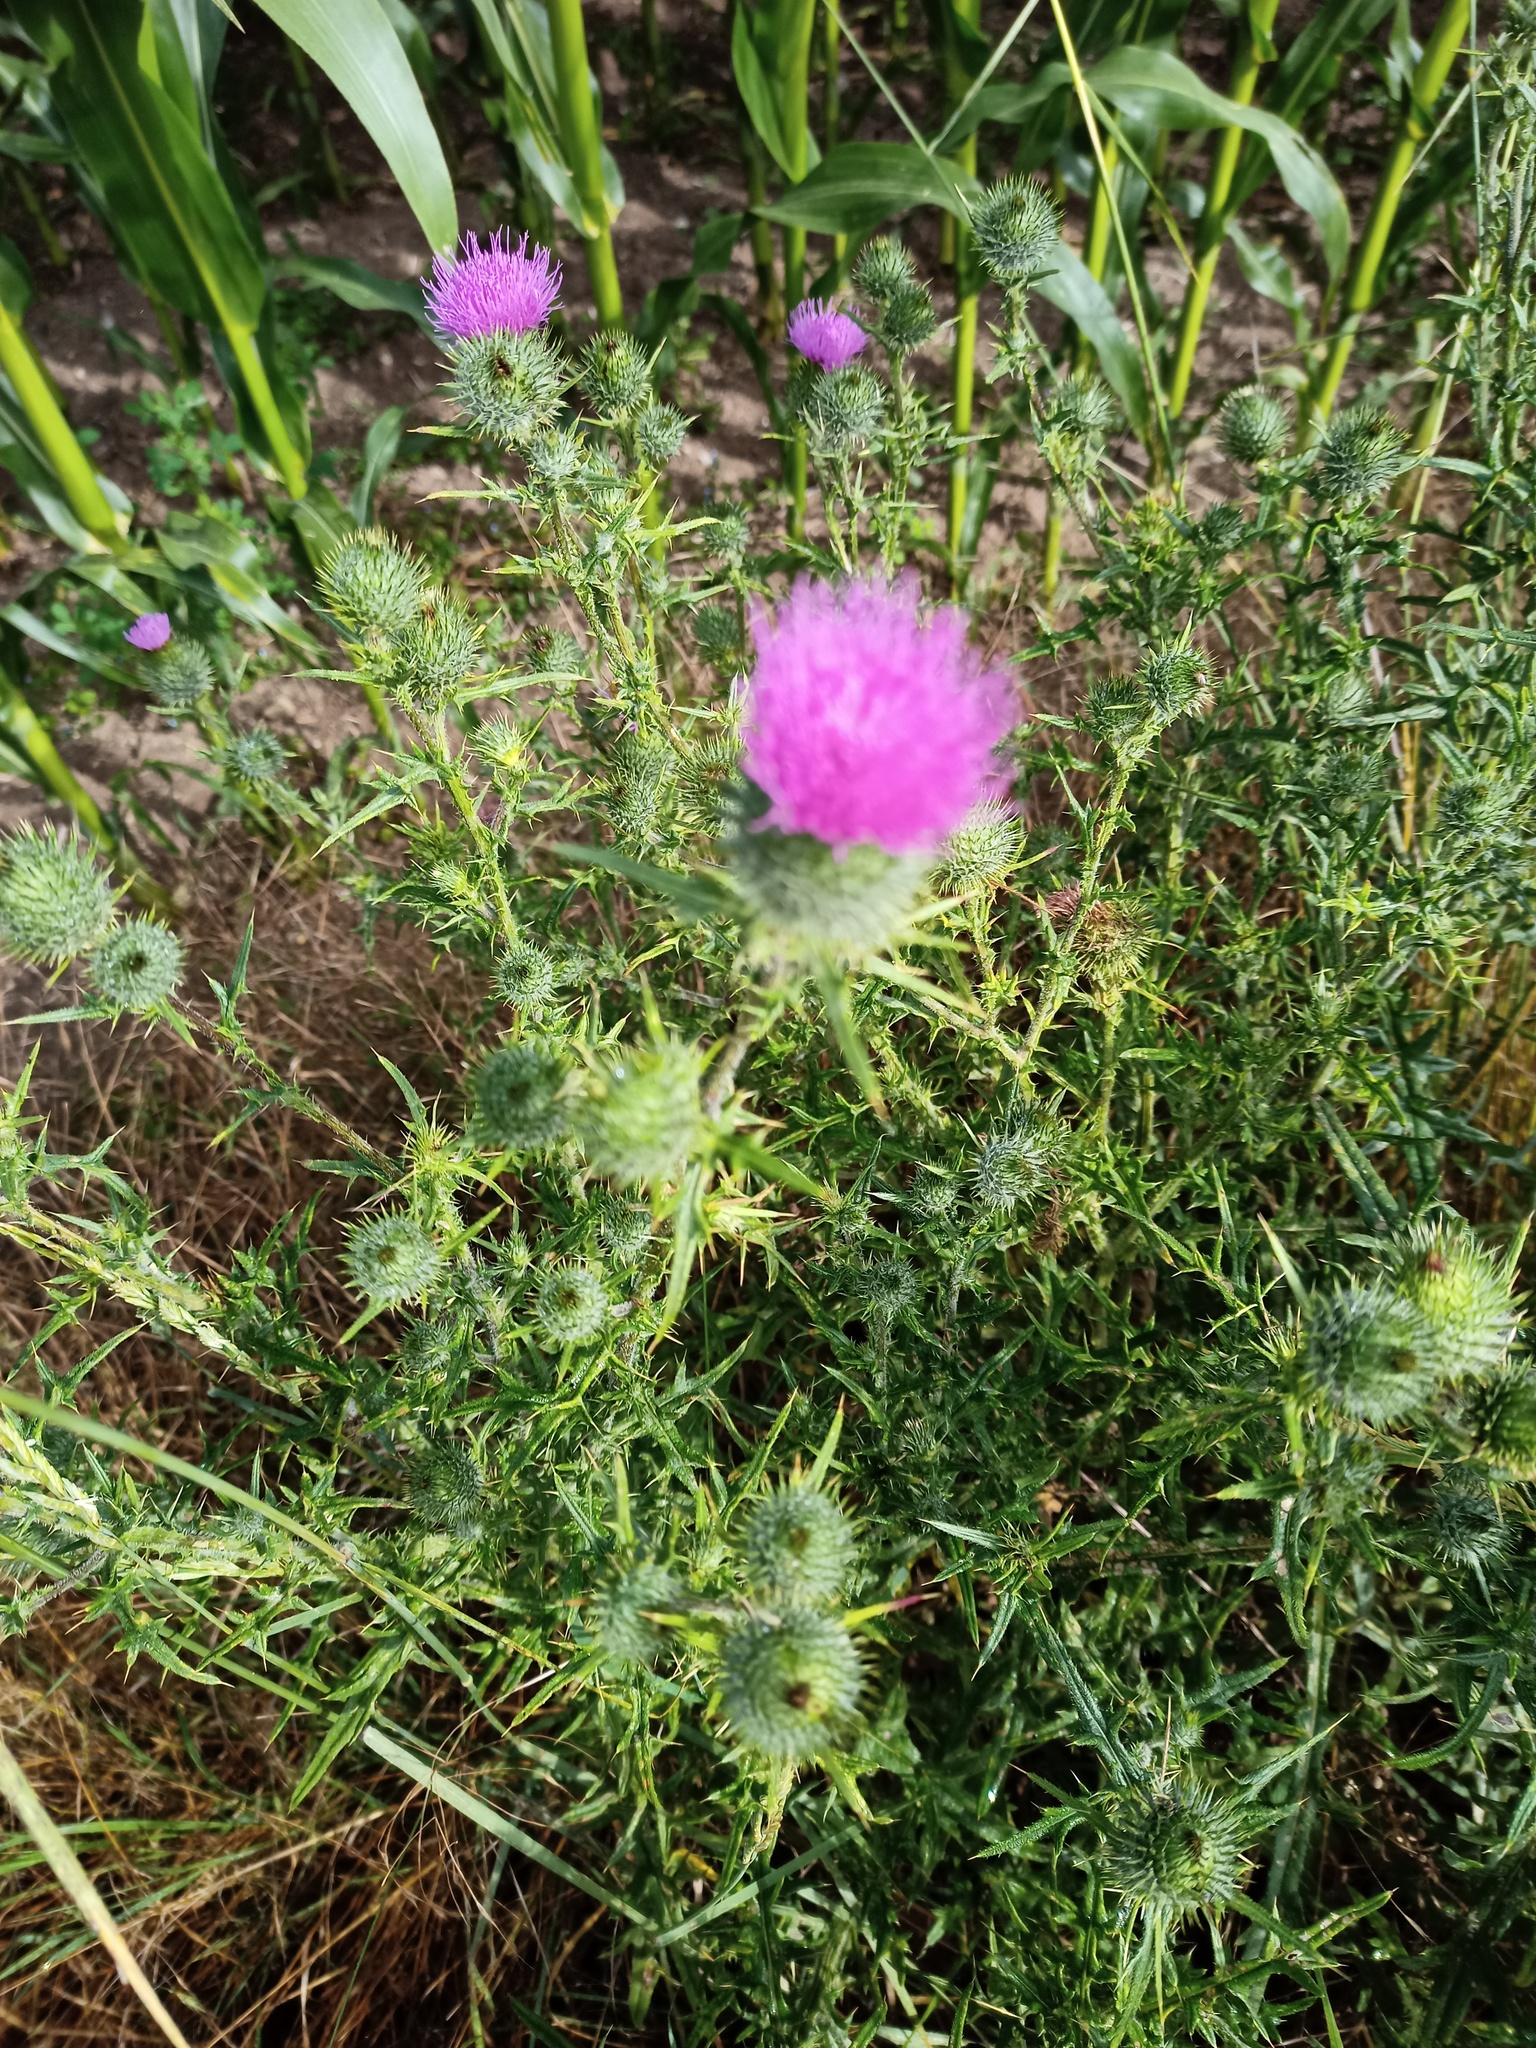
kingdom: Plantae
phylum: Tracheophyta
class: Magnoliopsida
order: Asterales
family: Asteraceae
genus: Cirsium
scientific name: Cirsium vulgare
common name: Bull thistle
